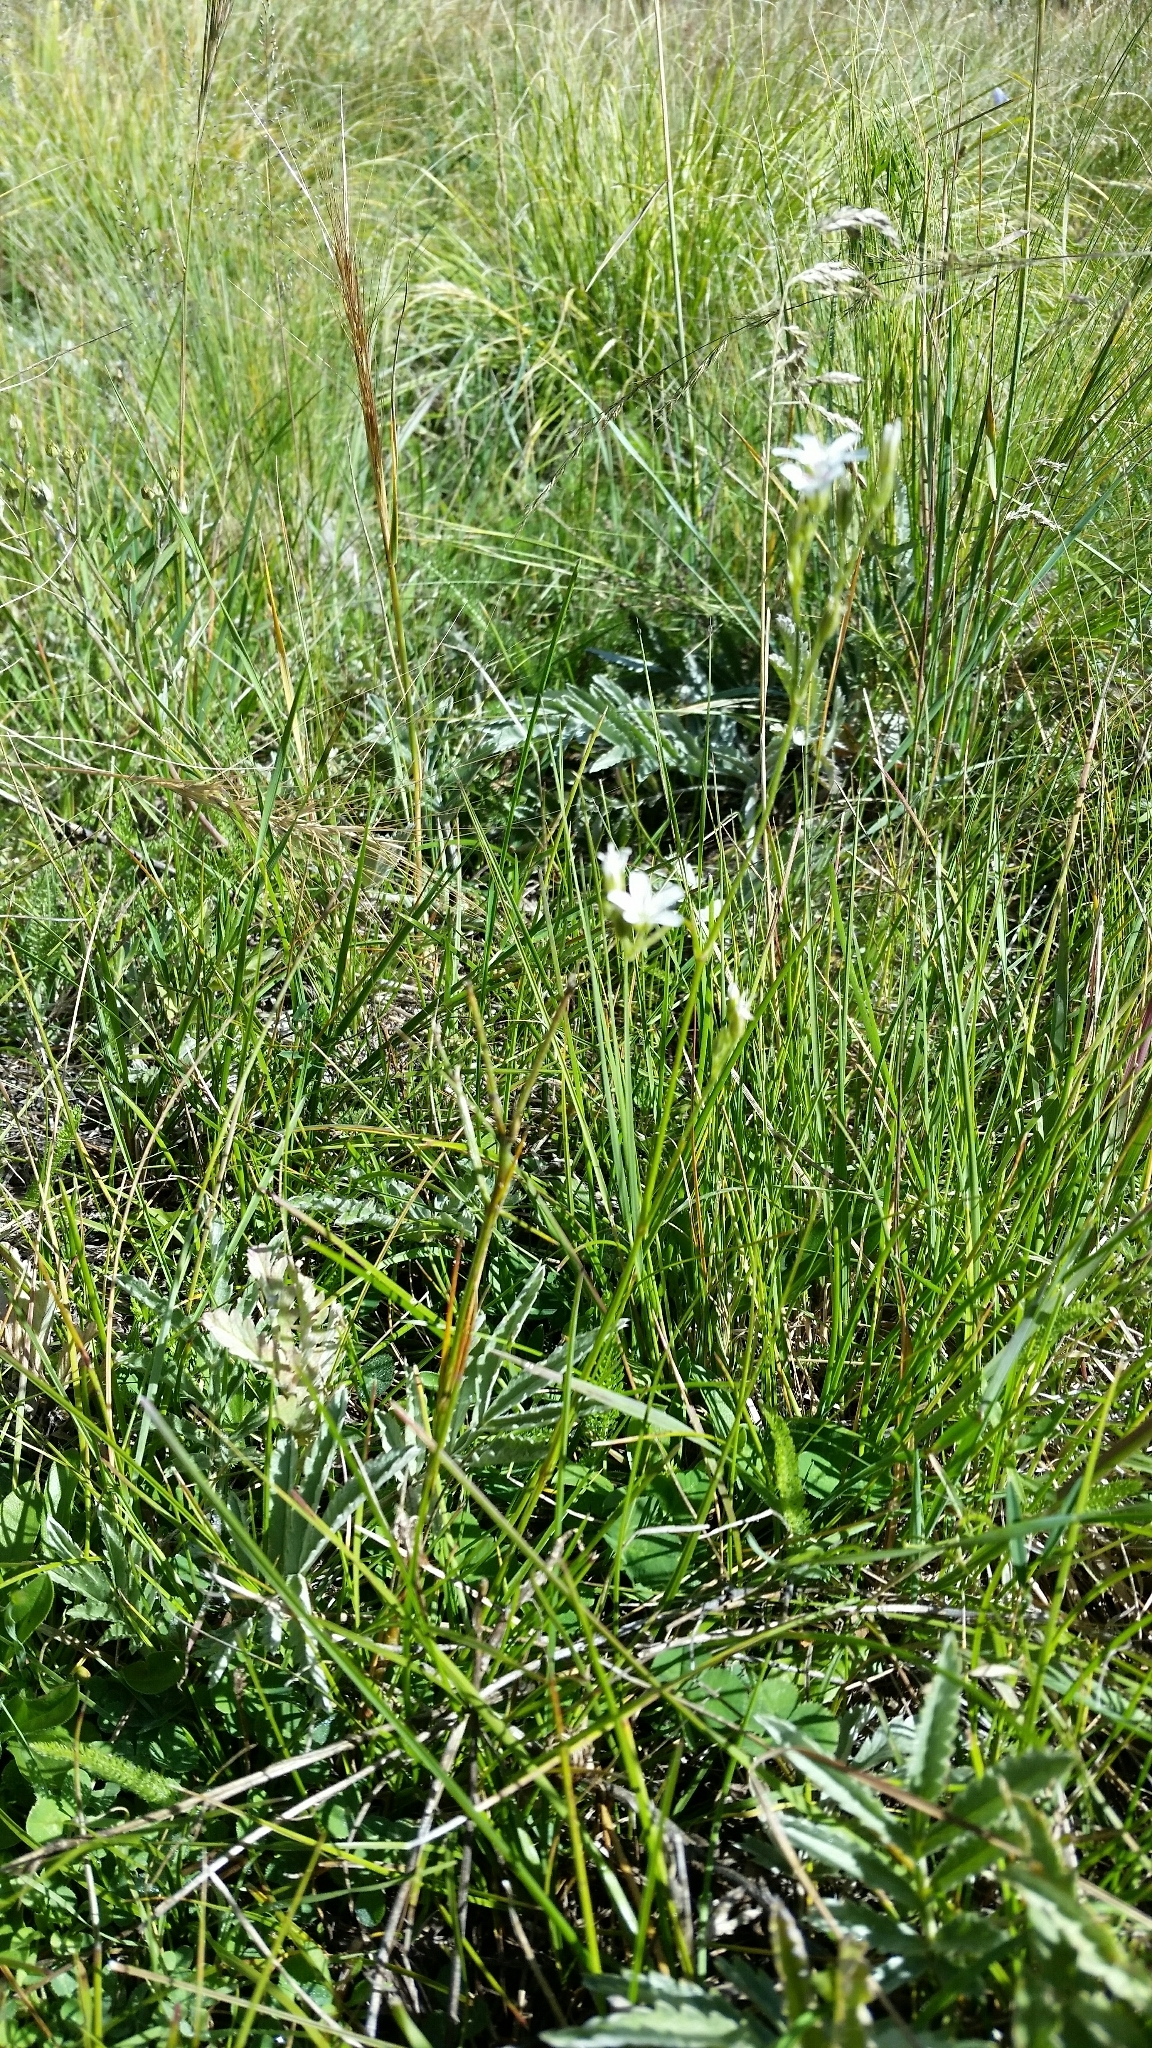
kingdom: Plantae
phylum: Tracheophyta
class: Magnoliopsida
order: Caryophyllales
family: Caryophyllaceae
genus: Eremogone
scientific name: Eremogone fendleri
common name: Fendler's sandwort
